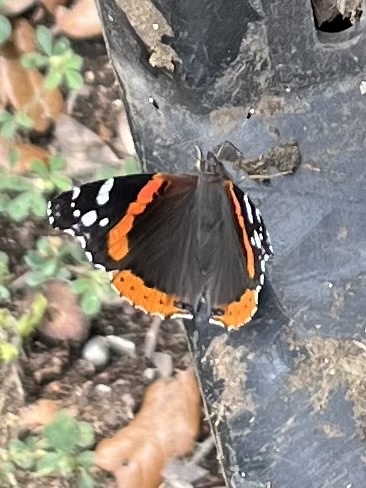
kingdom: Animalia
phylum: Arthropoda
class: Insecta
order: Lepidoptera
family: Nymphalidae
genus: Vanessa
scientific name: Vanessa atalanta
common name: Red admiral
